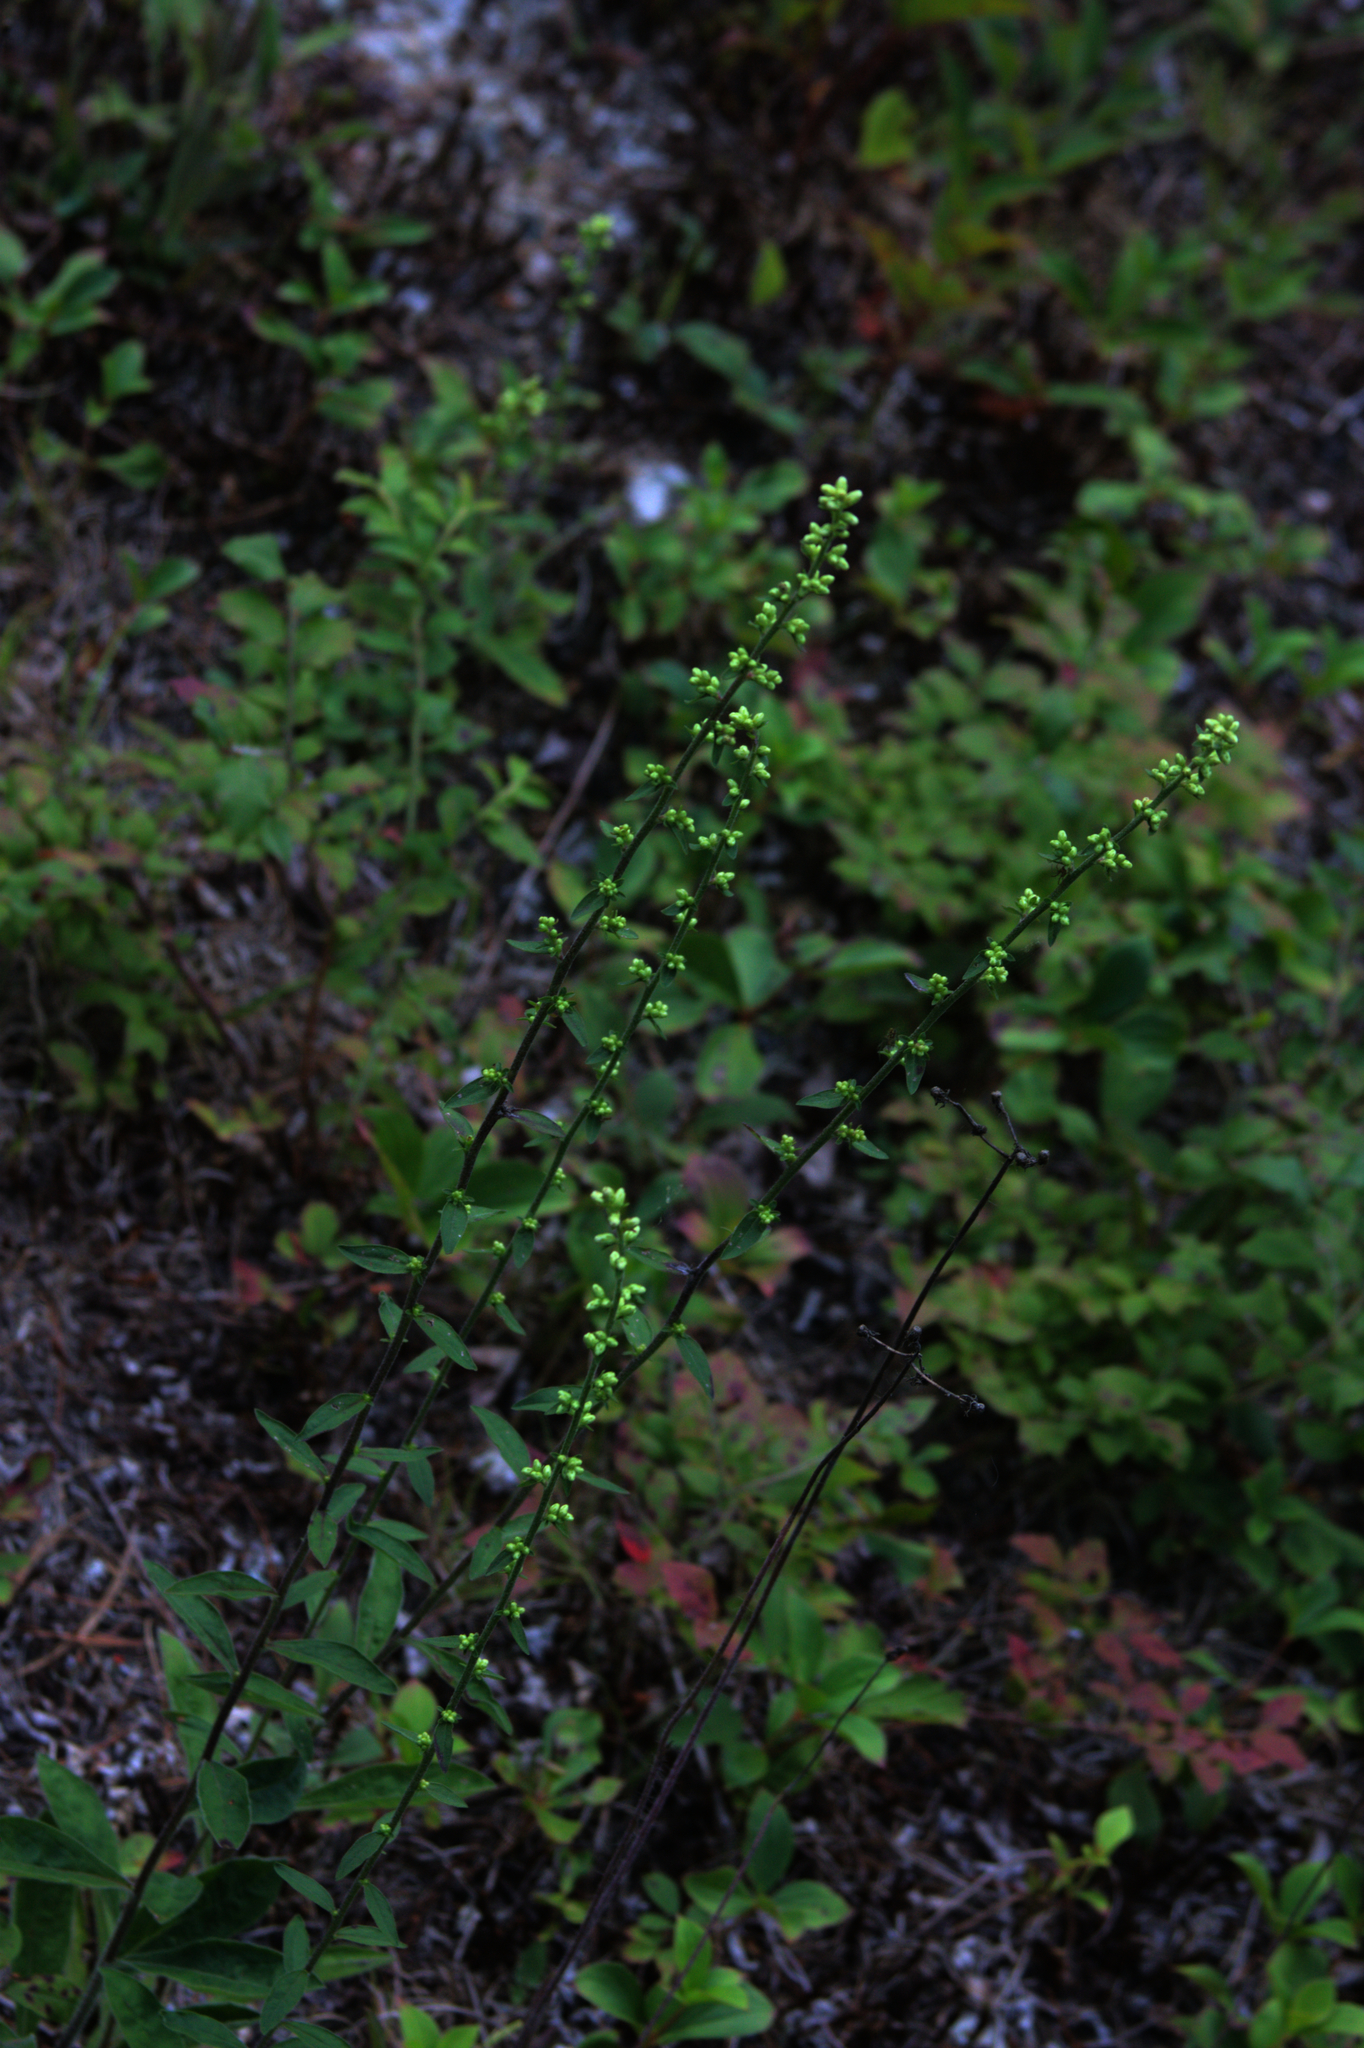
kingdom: Plantae
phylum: Tracheophyta
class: Magnoliopsida
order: Asterales
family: Asteraceae
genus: Solidago
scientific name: Solidago bicolor
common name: Silverrod
